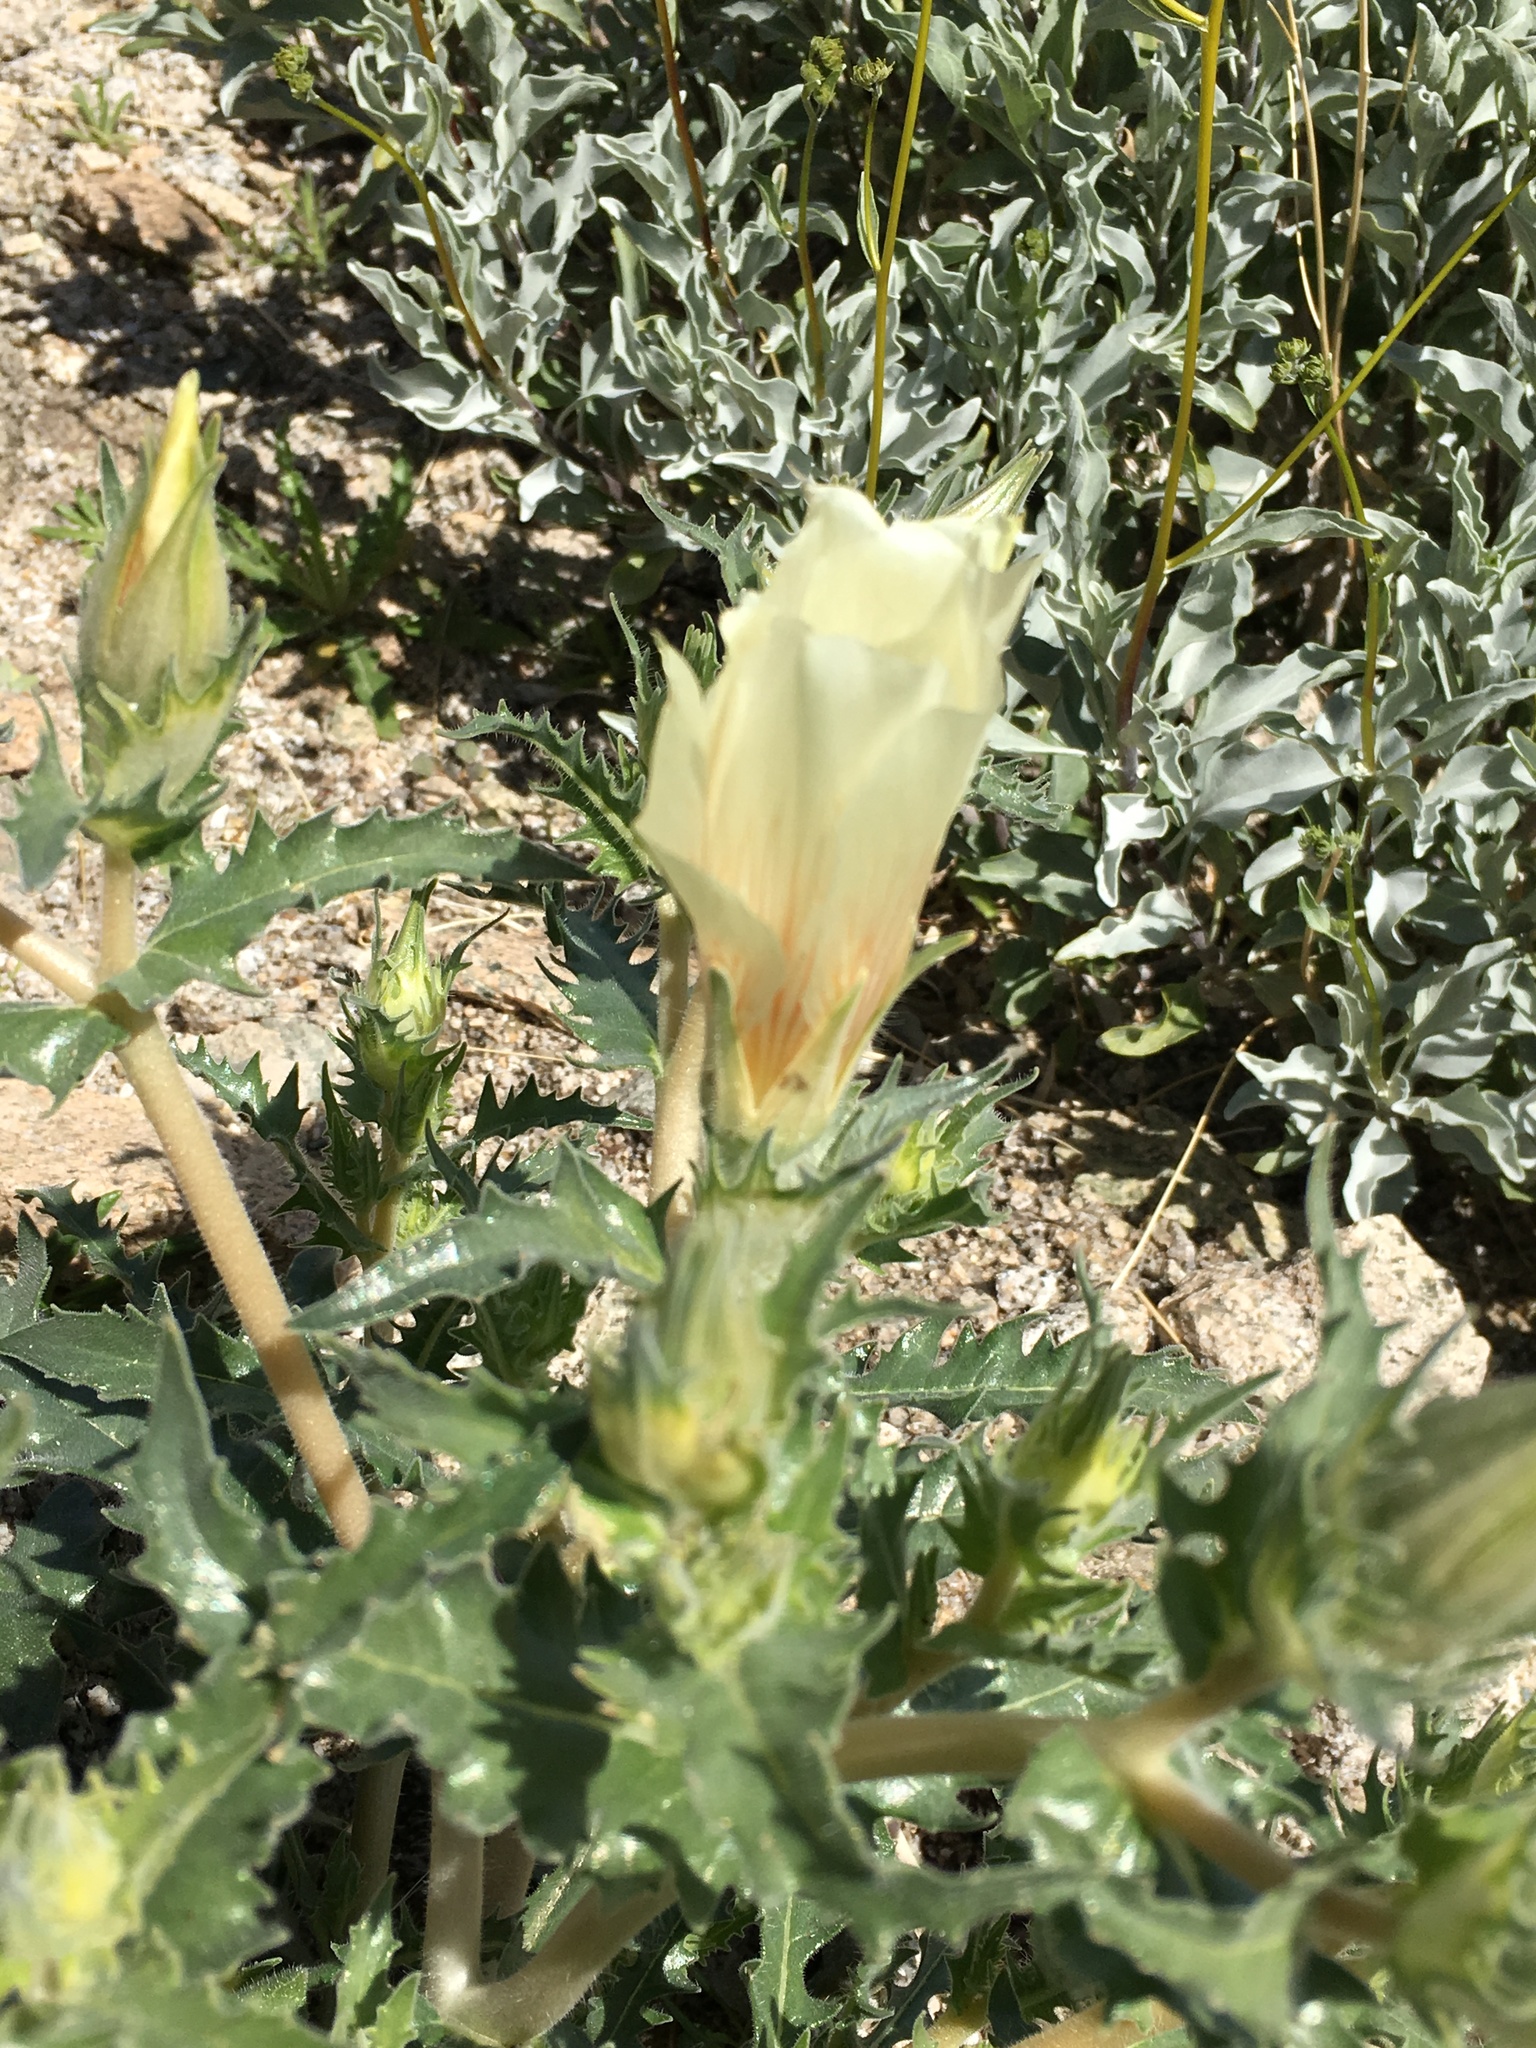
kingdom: Plantae
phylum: Tracheophyta
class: Magnoliopsida
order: Cornales
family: Loasaceae
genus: Mentzelia
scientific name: Mentzelia involucrata
